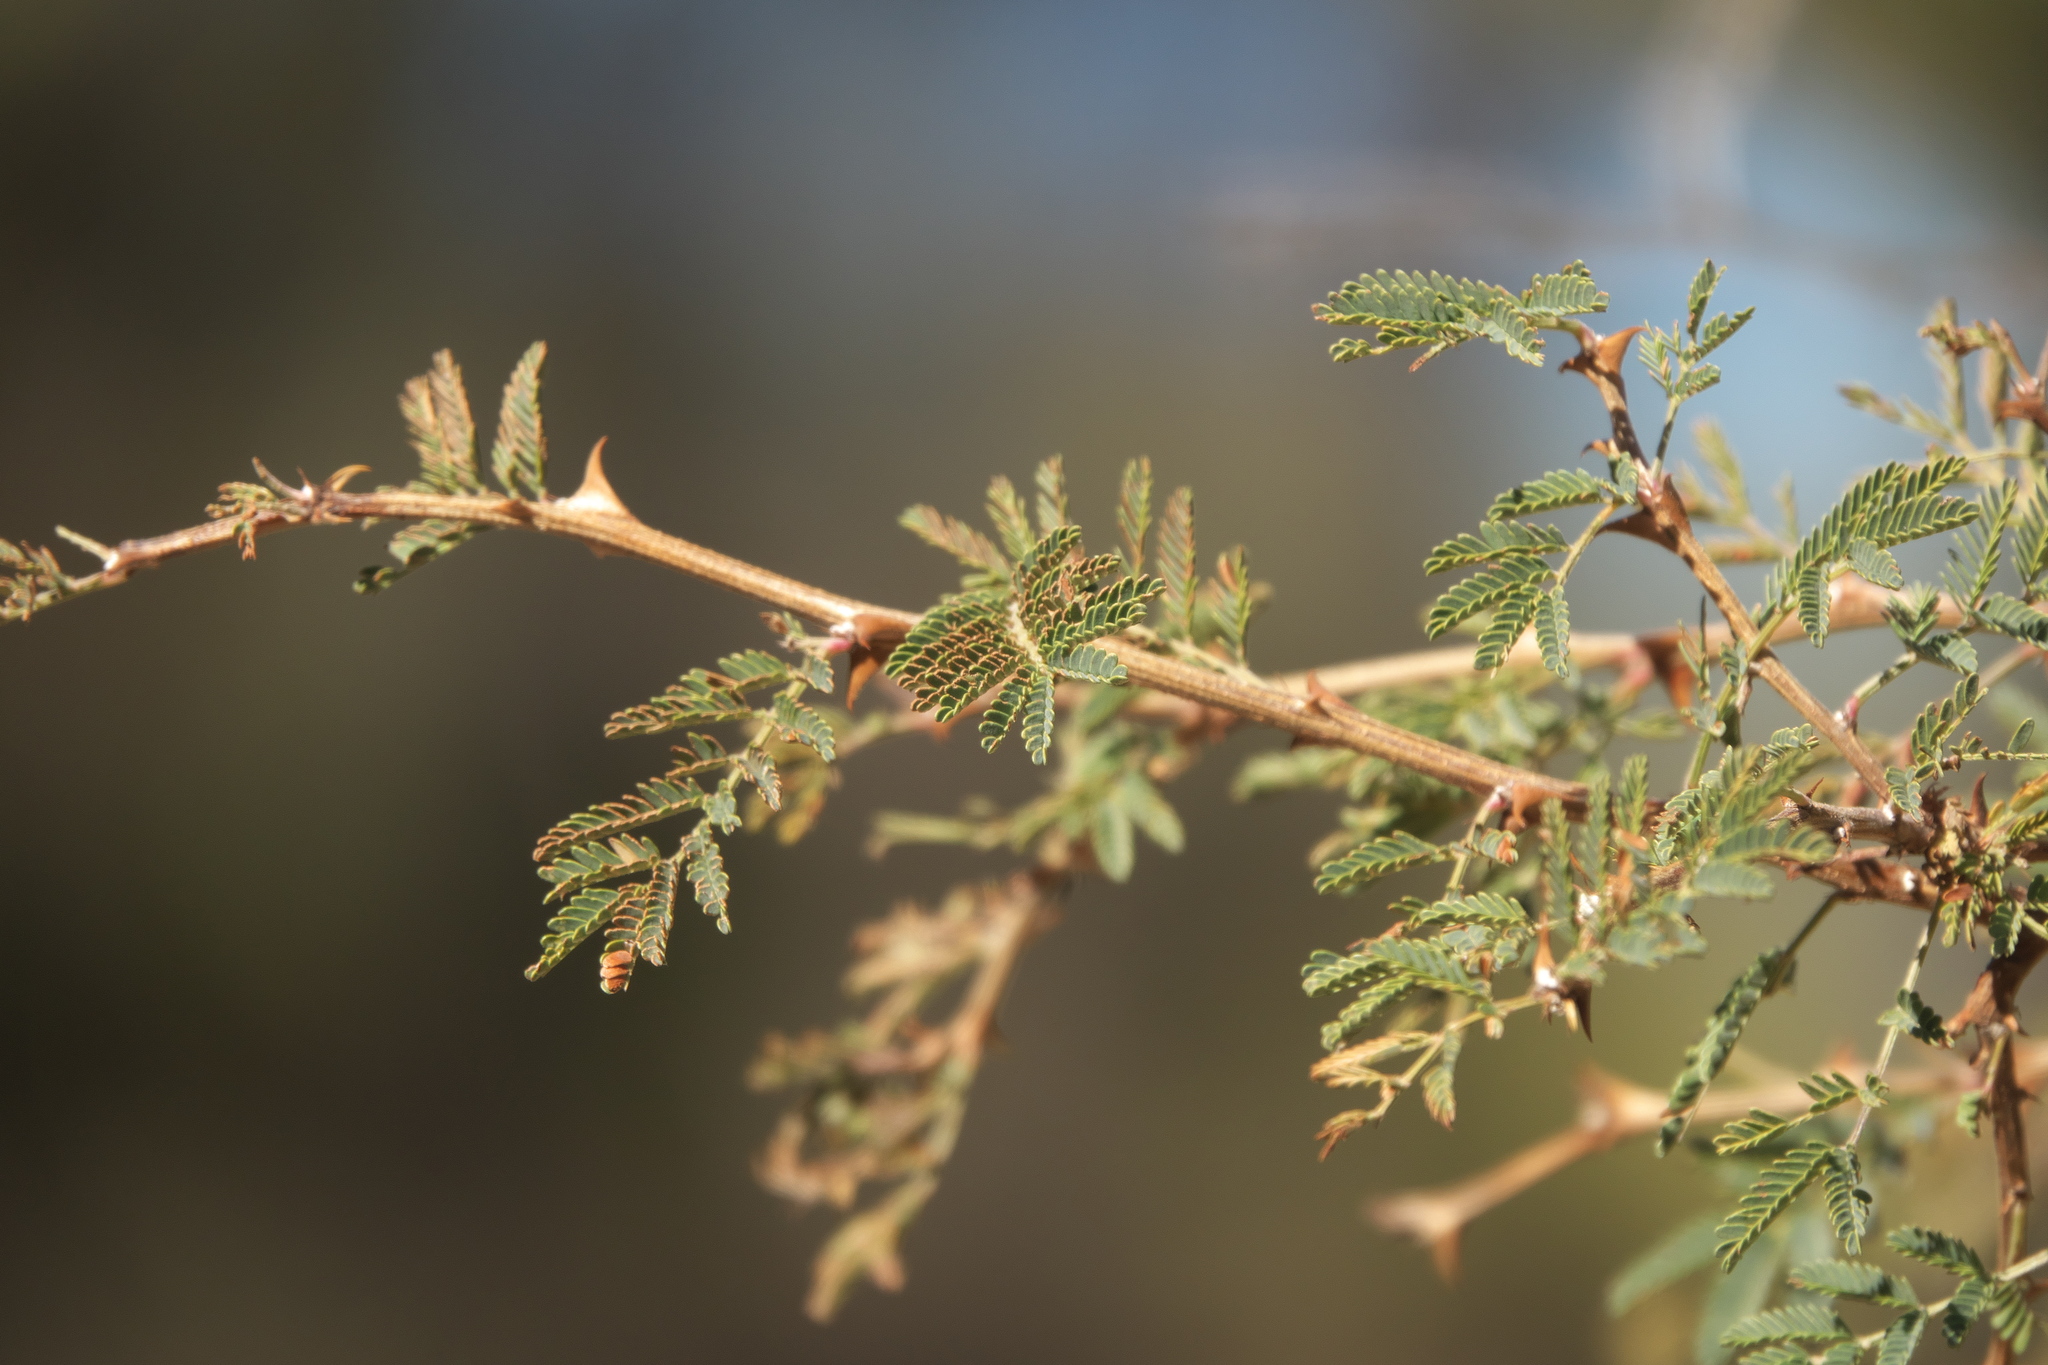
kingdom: Plantae
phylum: Tracheophyta
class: Magnoliopsida
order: Fabales
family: Fabaceae
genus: Mimosa
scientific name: Mimosa biuncifera
